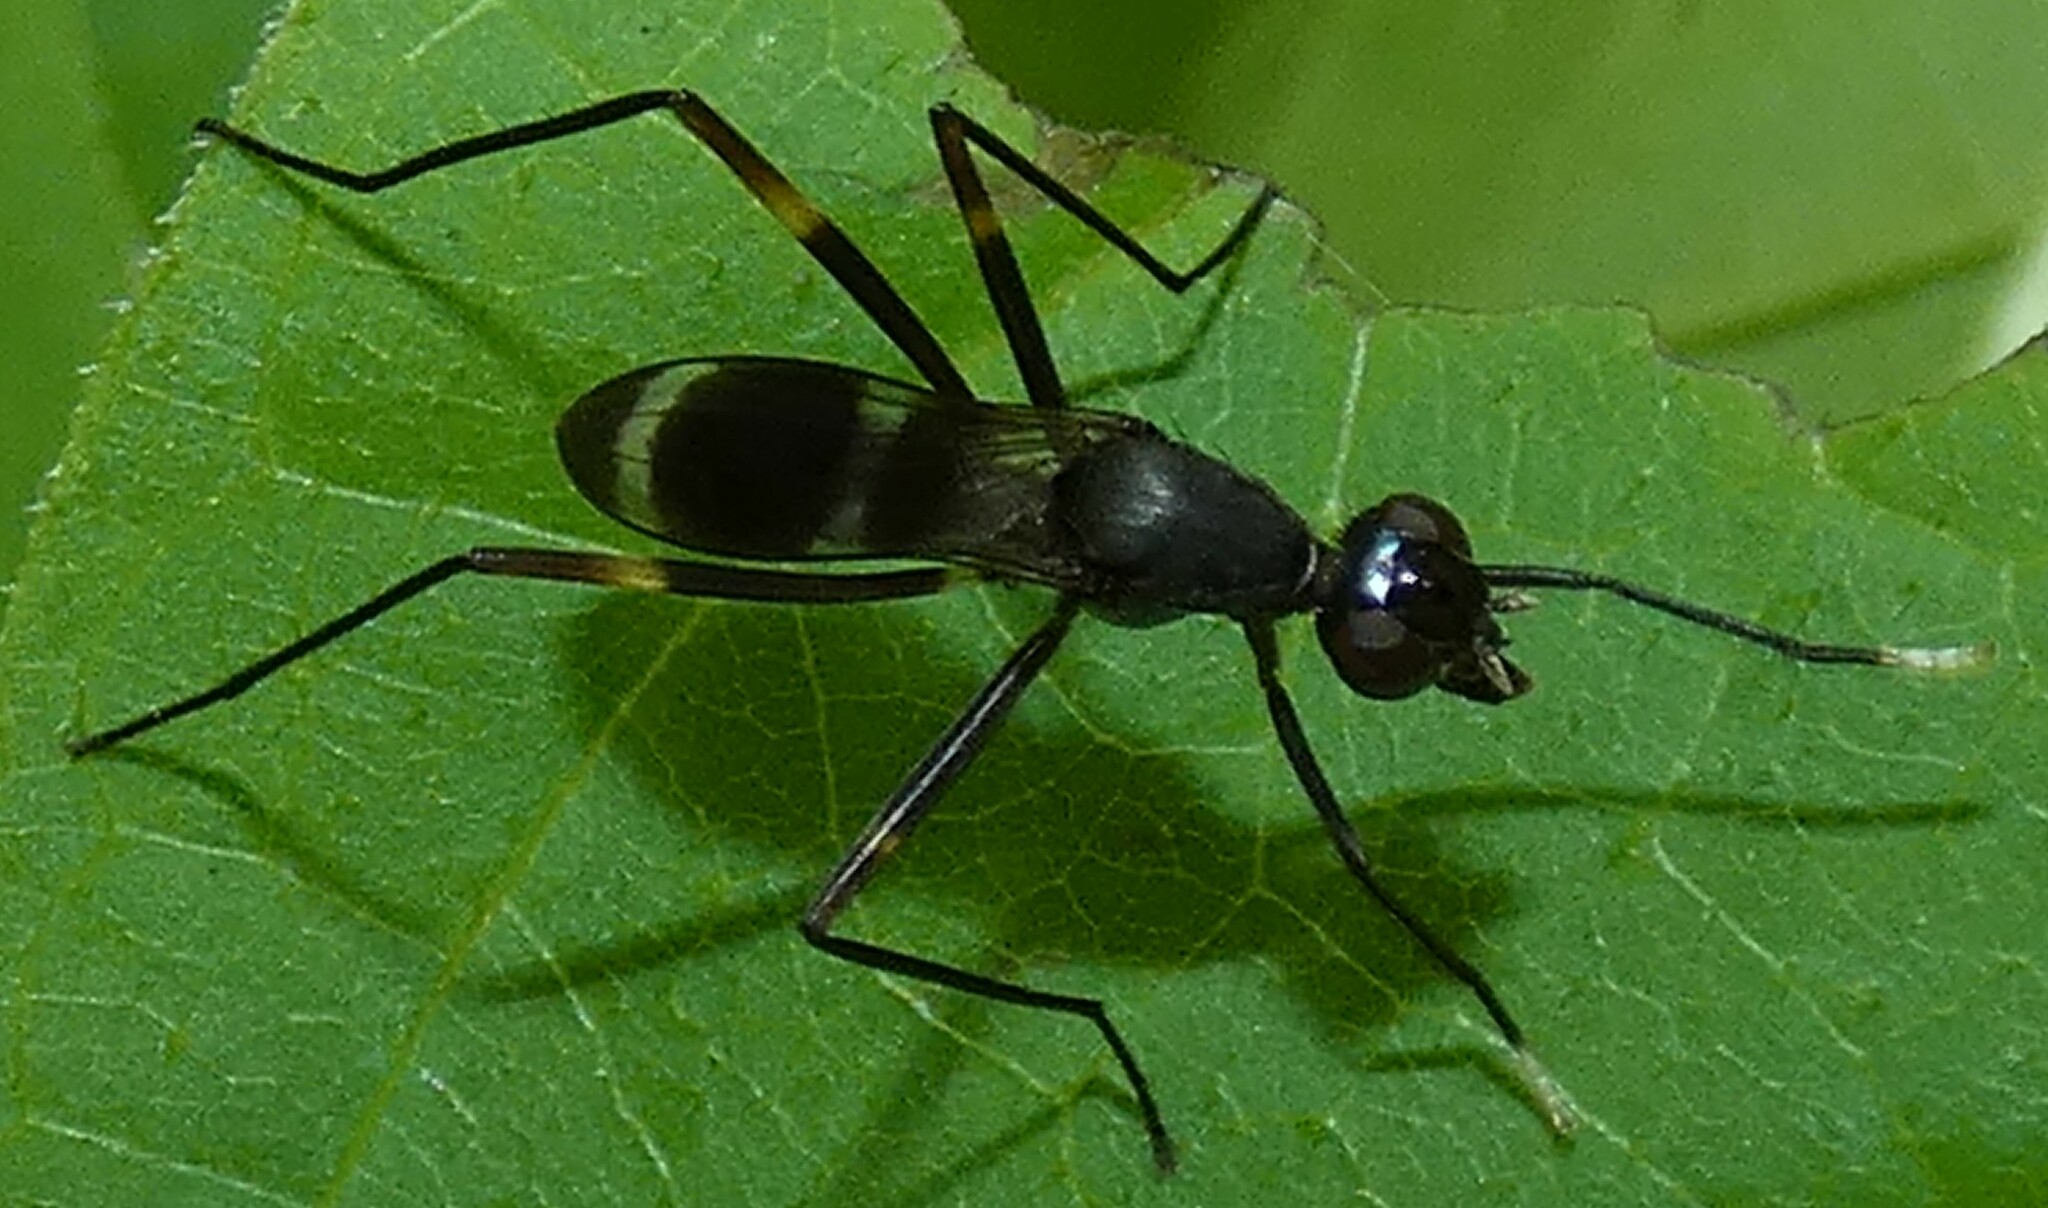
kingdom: Animalia
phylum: Arthropoda
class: Insecta
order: Diptera
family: Micropezidae
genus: Taeniaptera
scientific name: Taeniaptera trivittata
